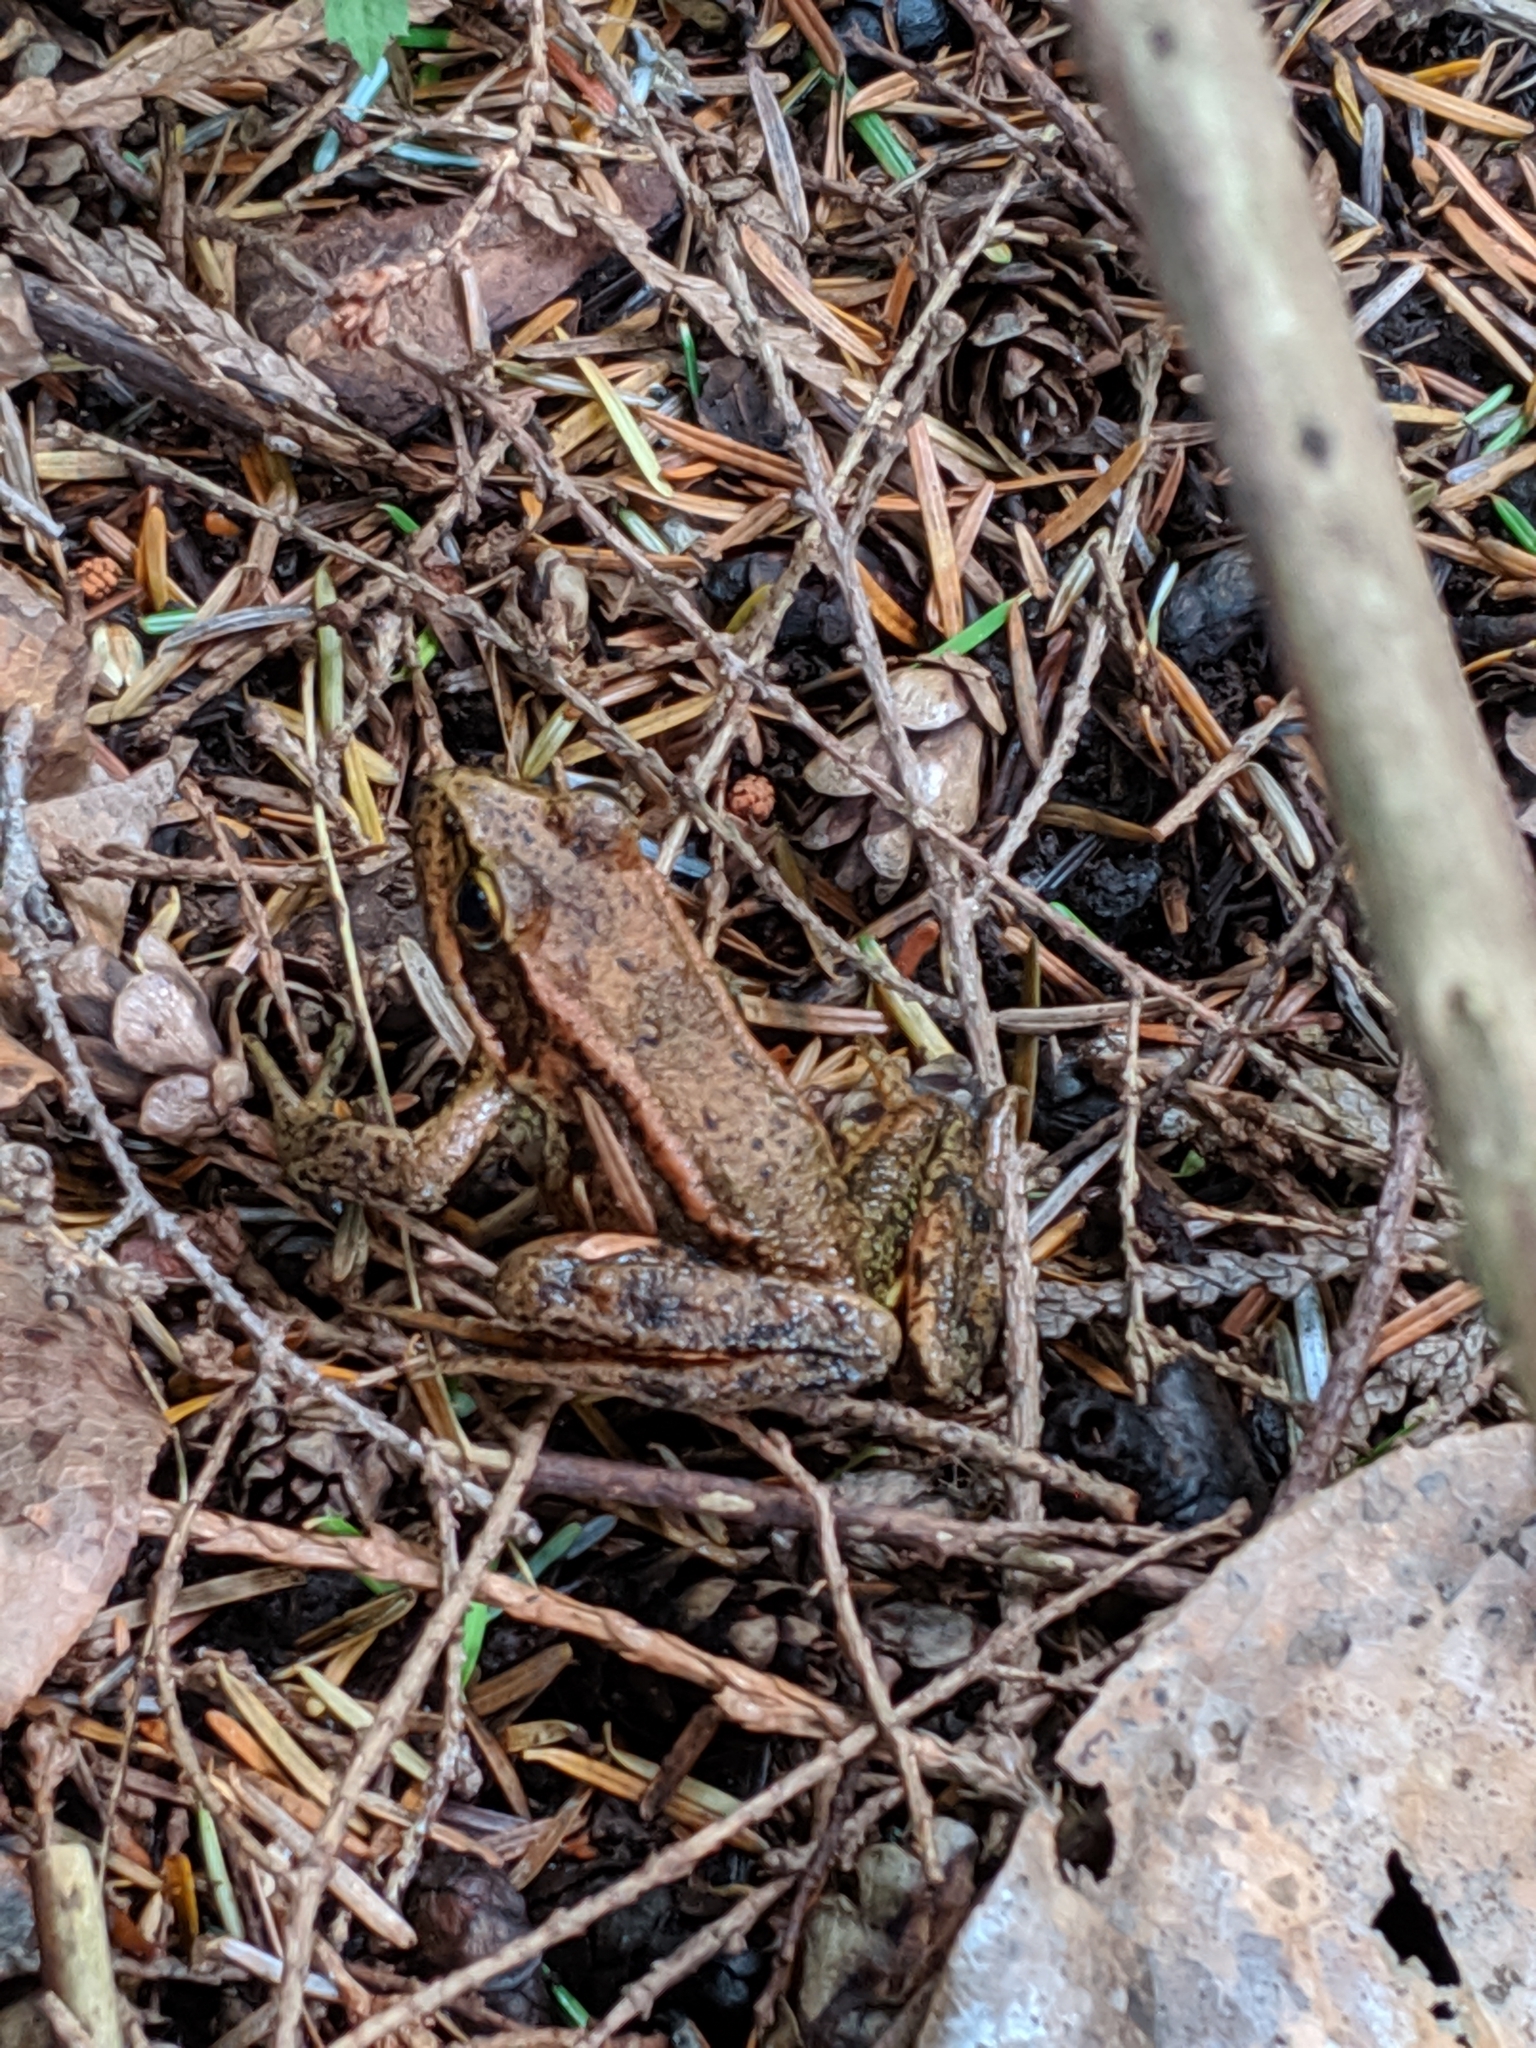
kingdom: Animalia
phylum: Chordata
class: Amphibia
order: Anura
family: Ranidae
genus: Rana
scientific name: Rana aurora
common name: Red-legged frog
